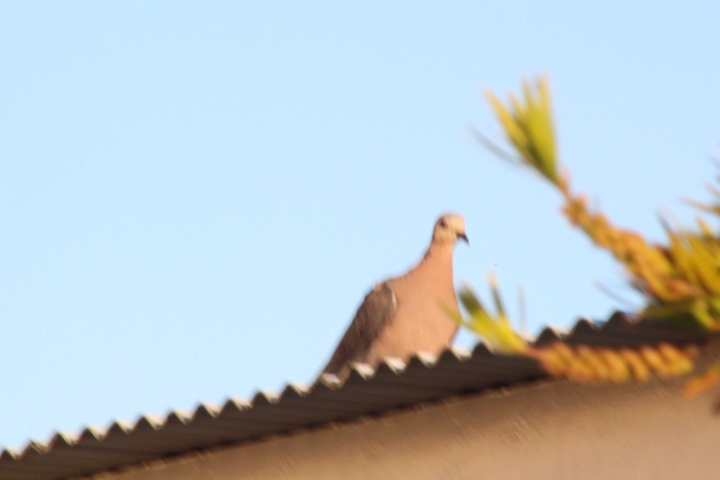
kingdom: Animalia
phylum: Chordata
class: Aves
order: Columbiformes
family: Columbidae
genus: Streptopelia
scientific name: Streptopelia semitorquata
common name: Red-eyed dove
